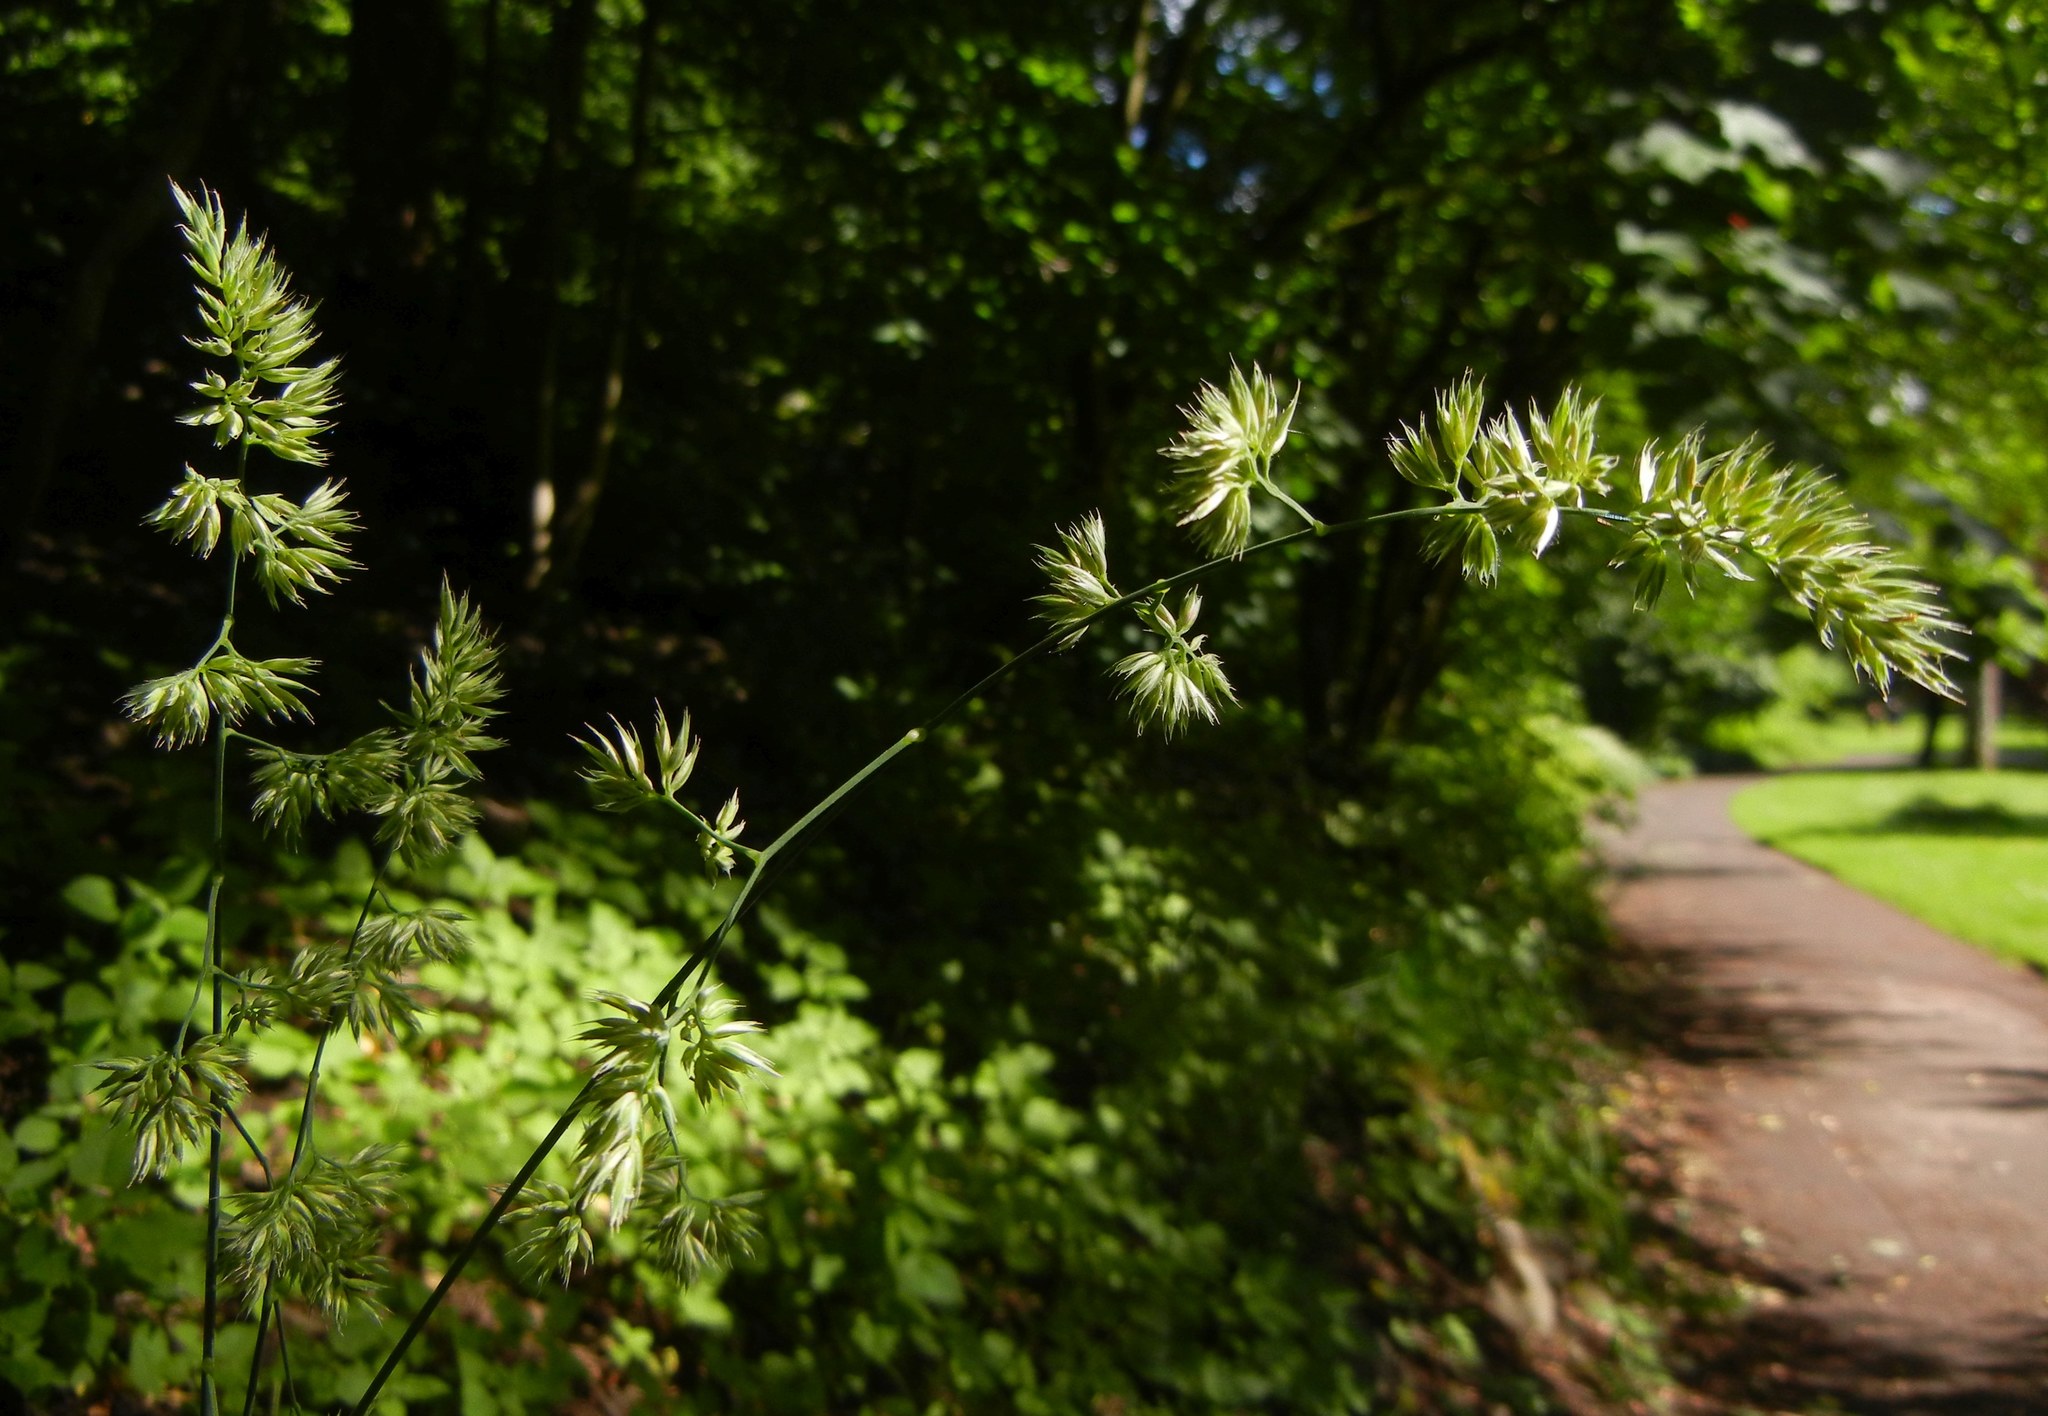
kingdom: Plantae
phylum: Tracheophyta
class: Liliopsida
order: Poales
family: Poaceae
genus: Dactylis
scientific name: Dactylis glomerata
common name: Orchardgrass
